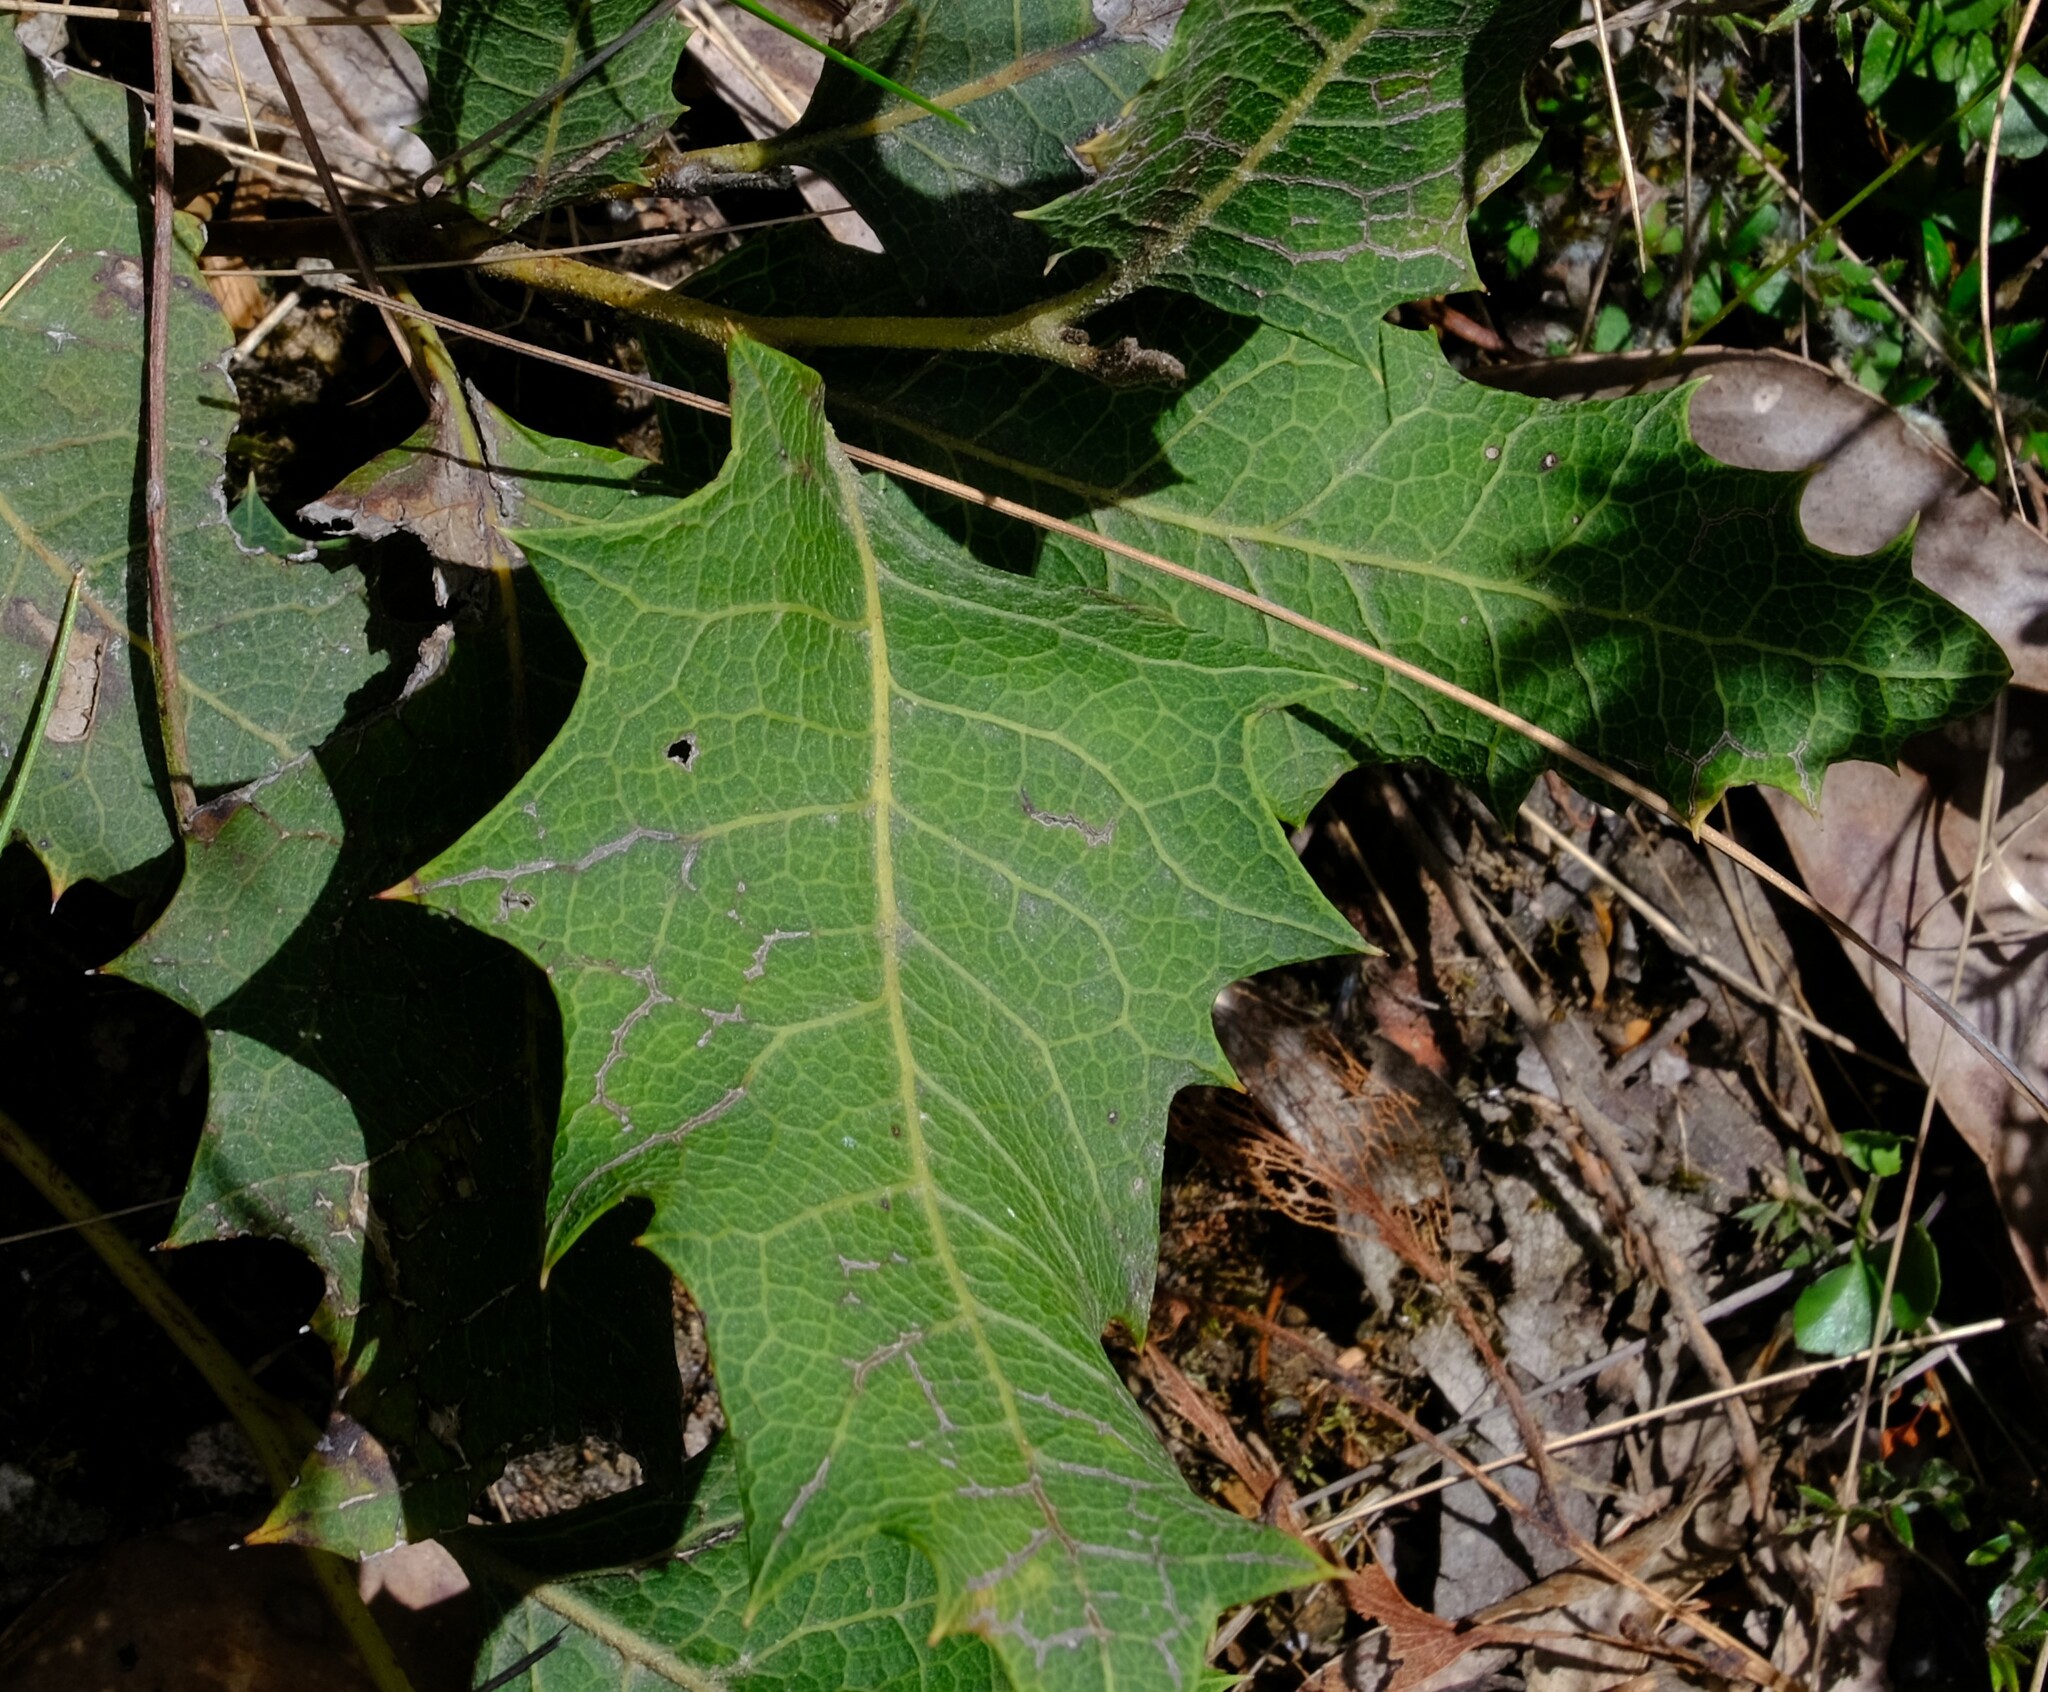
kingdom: Plantae
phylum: Tracheophyta
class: Magnoliopsida
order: Proteales
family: Proteaceae
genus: Lomatia
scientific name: Lomatia ilicifolia
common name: Native-holly
